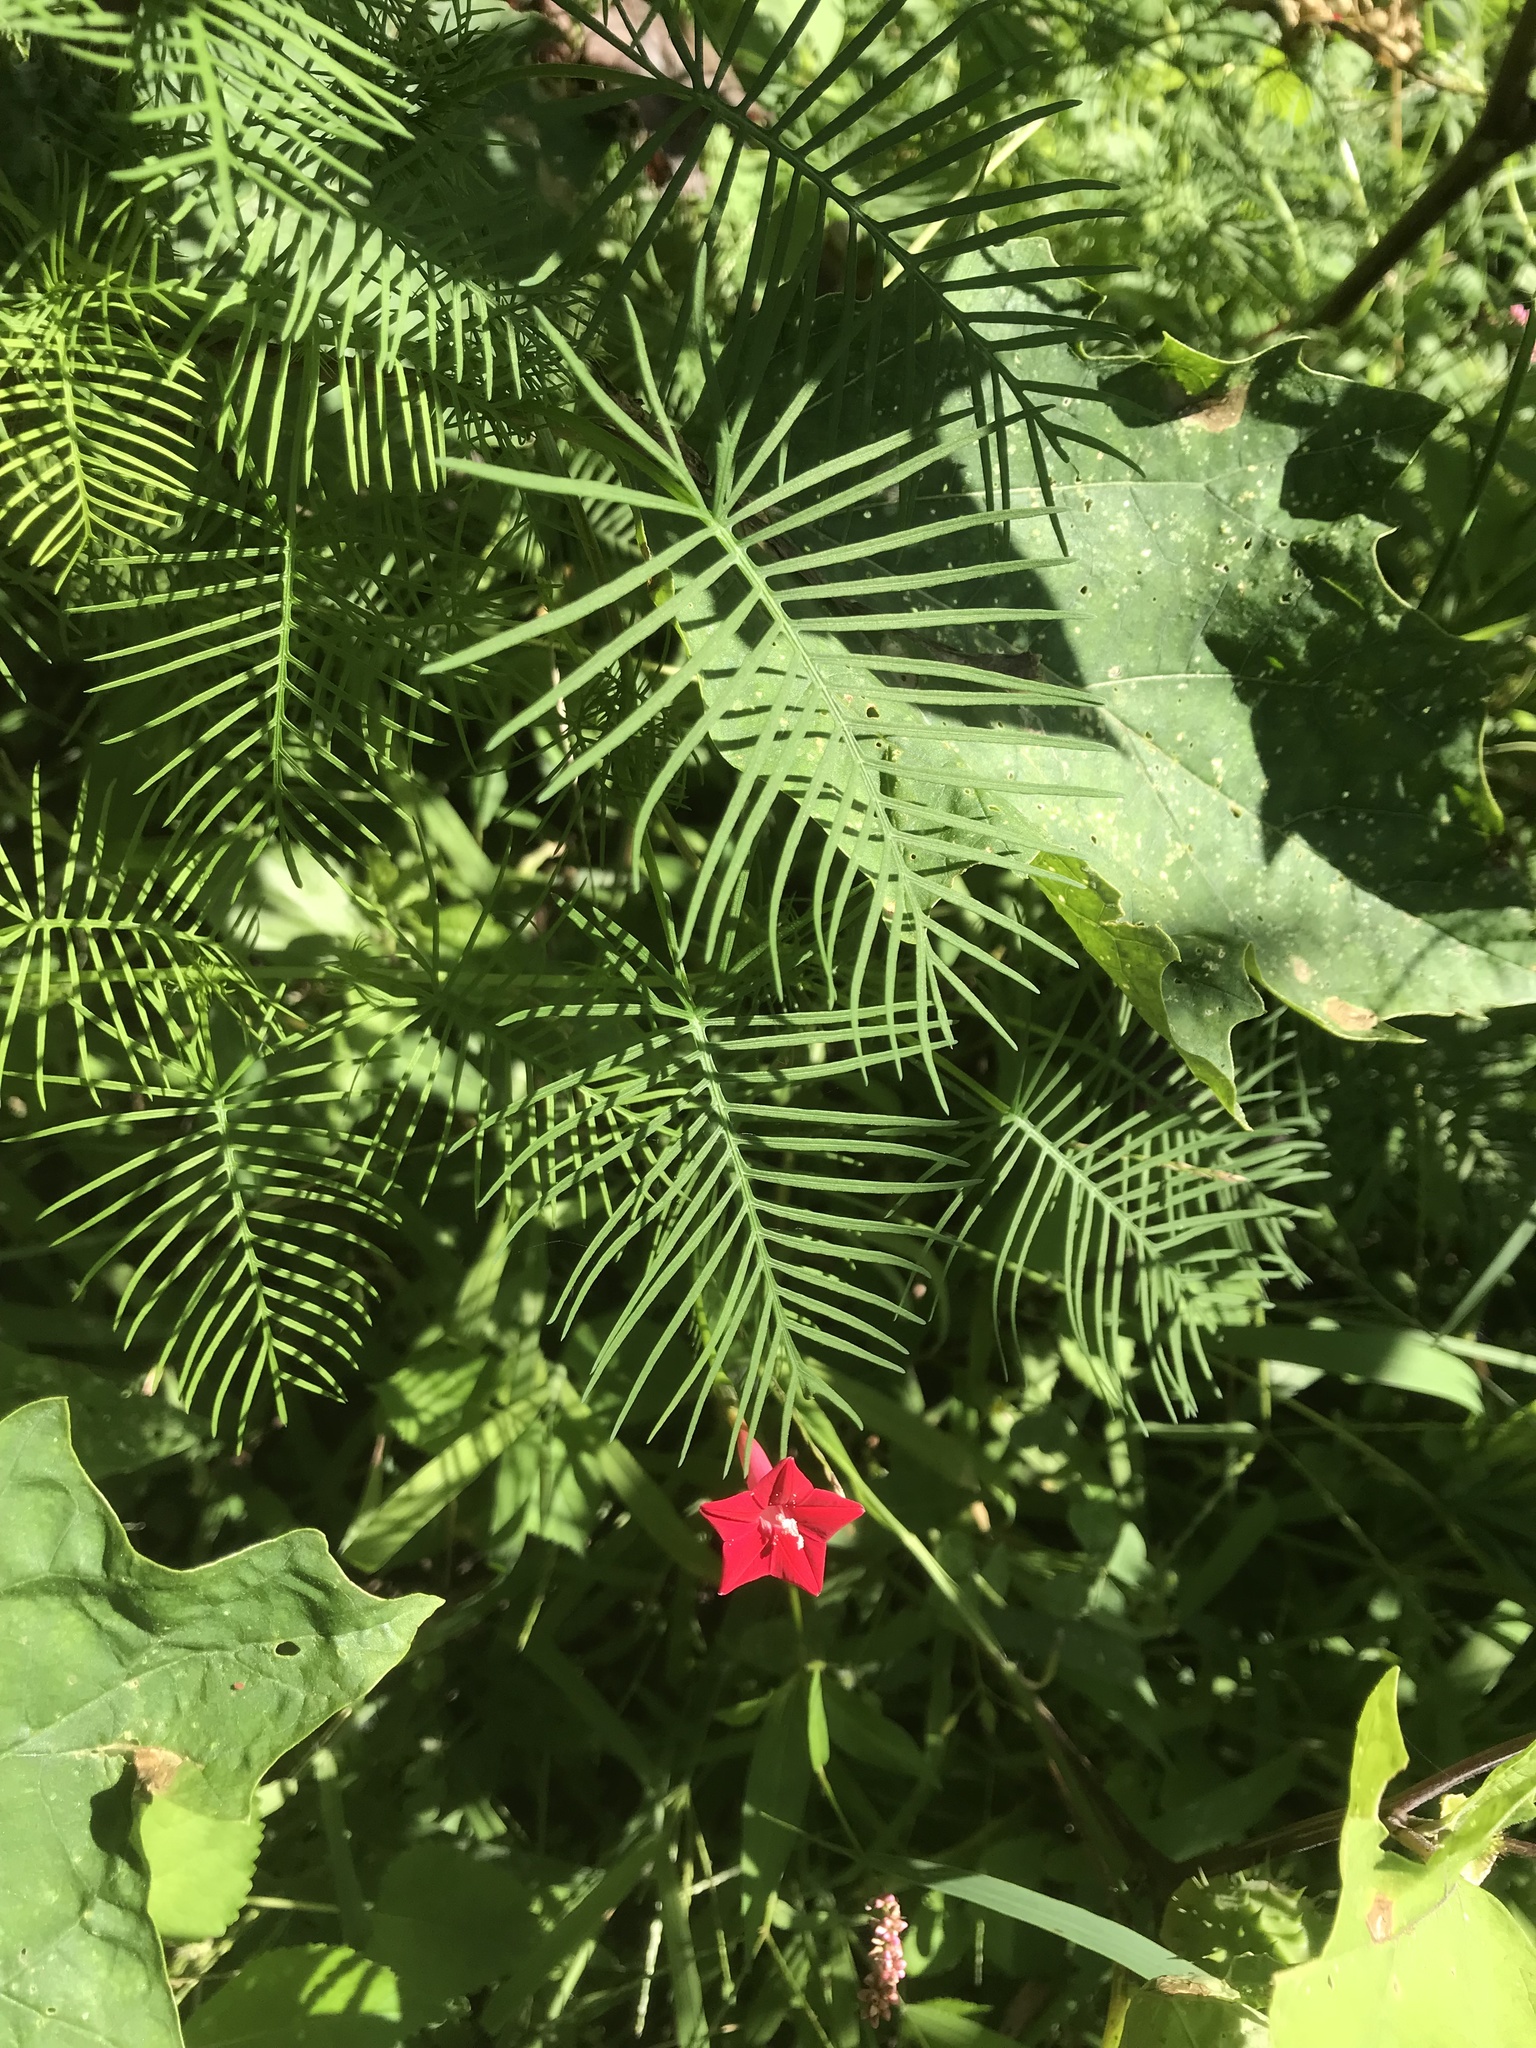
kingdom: Plantae
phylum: Tracheophyta
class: Magnoliopsida
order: Solanales
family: Convolvulaceae
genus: Ipomoea
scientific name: Ipomoea quamoclit
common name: Cypress vine
